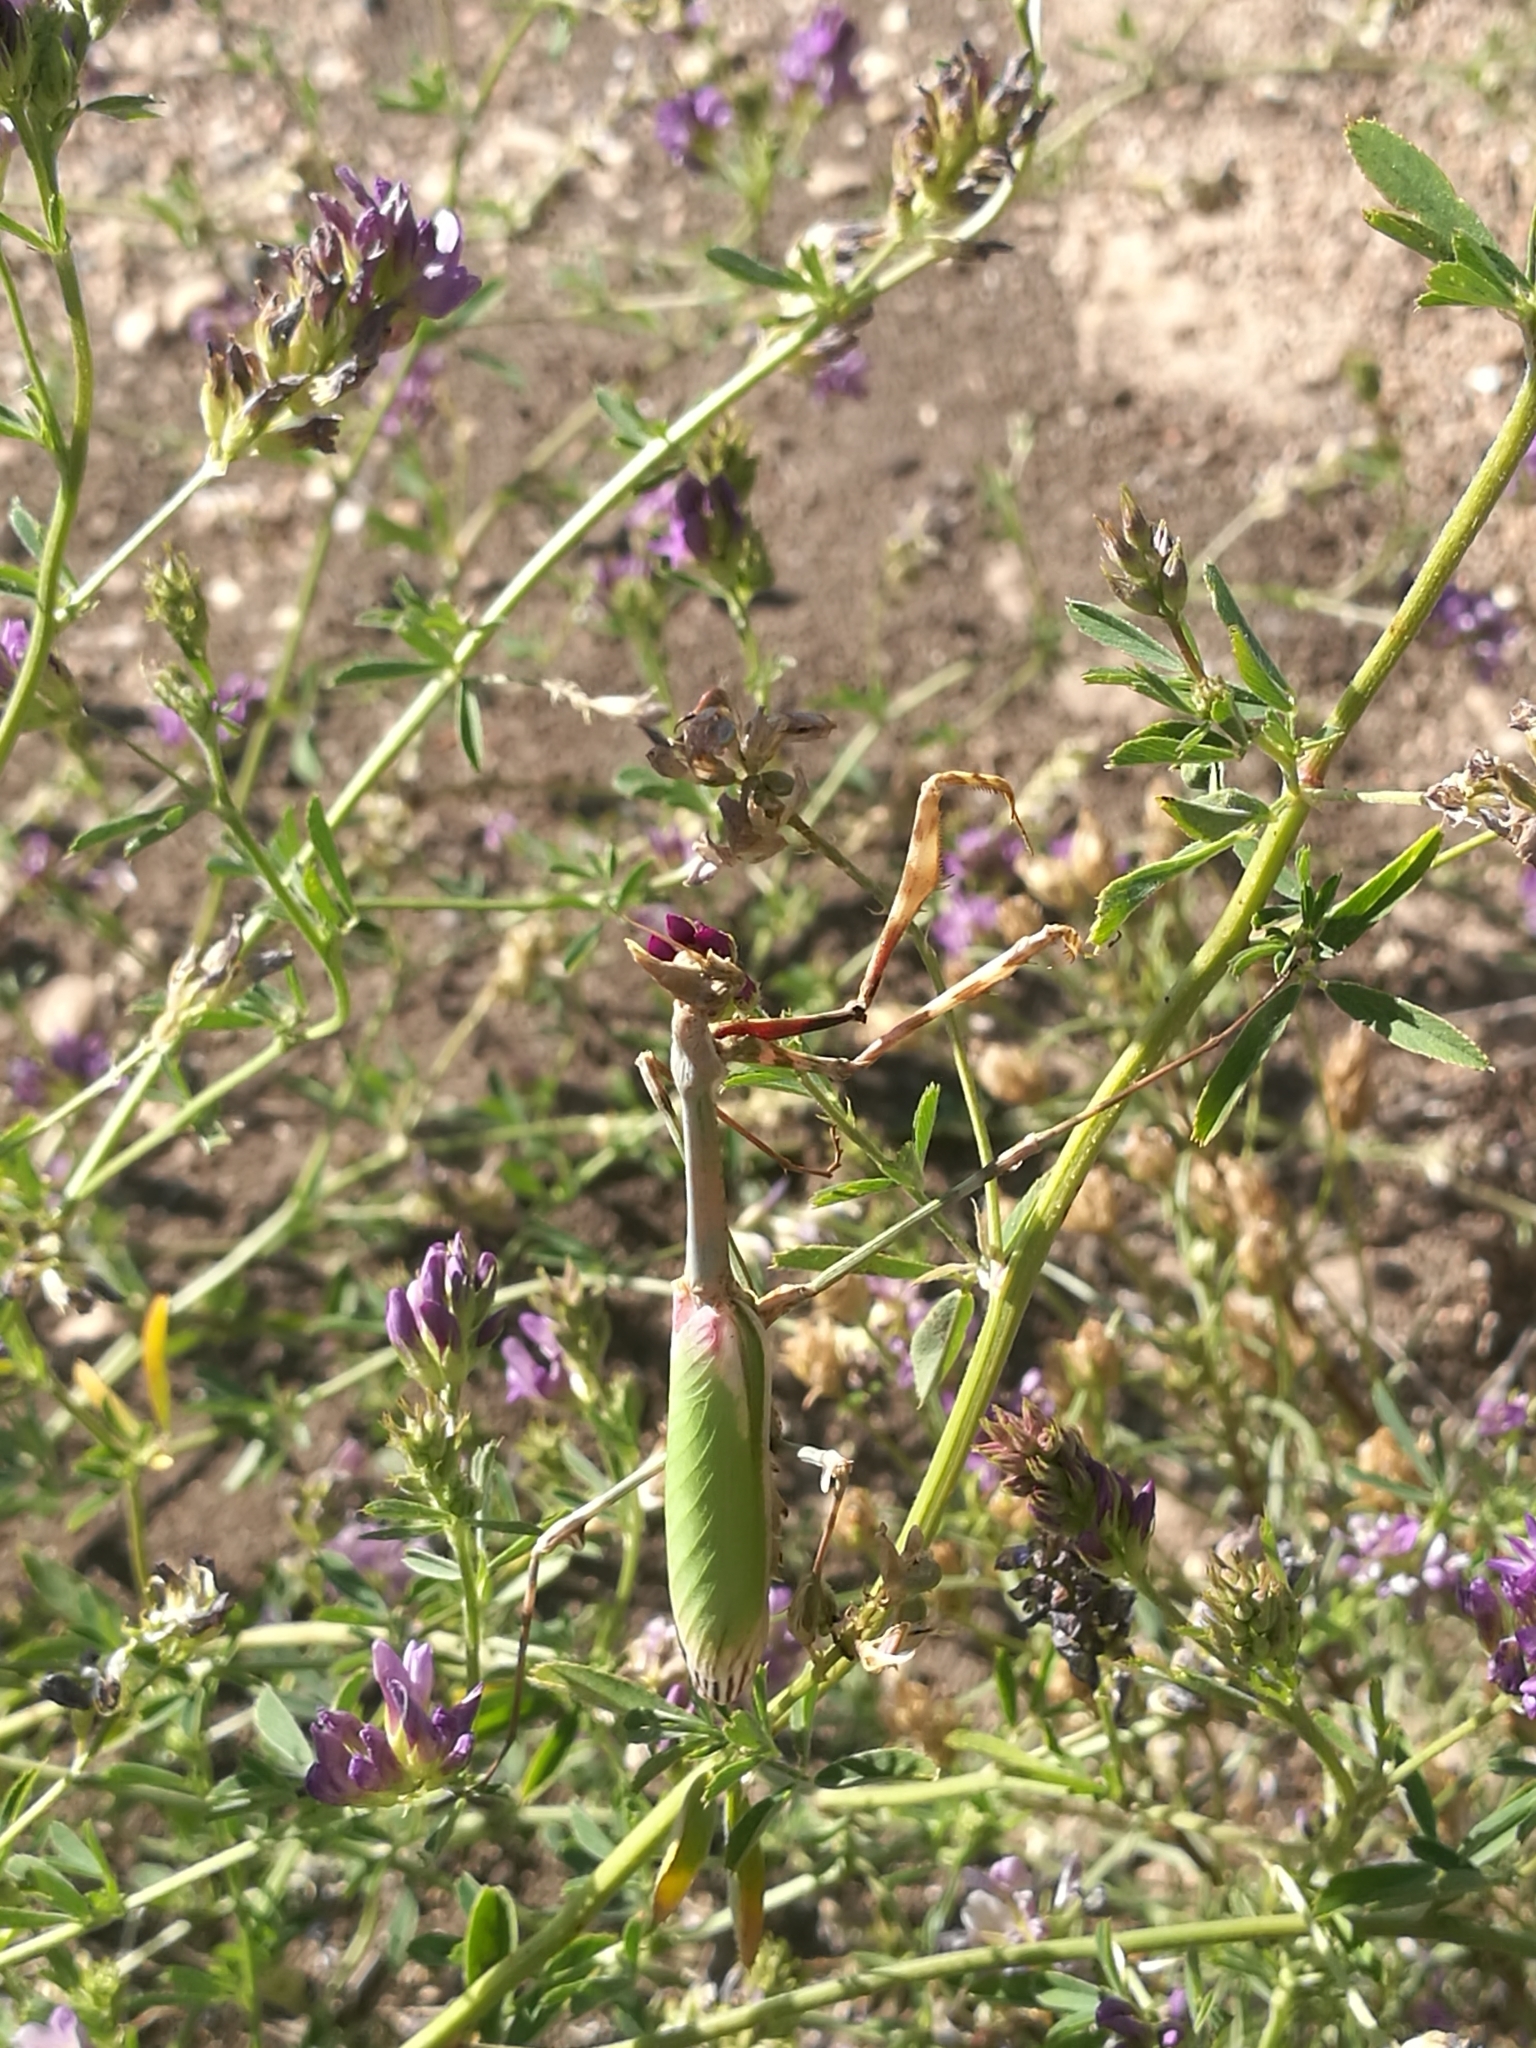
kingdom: Animalia
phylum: Arthropoda
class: Insecta
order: Mantodea
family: Empusidae
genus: Empusa
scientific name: Empusa pennata
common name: Conehead mantis
